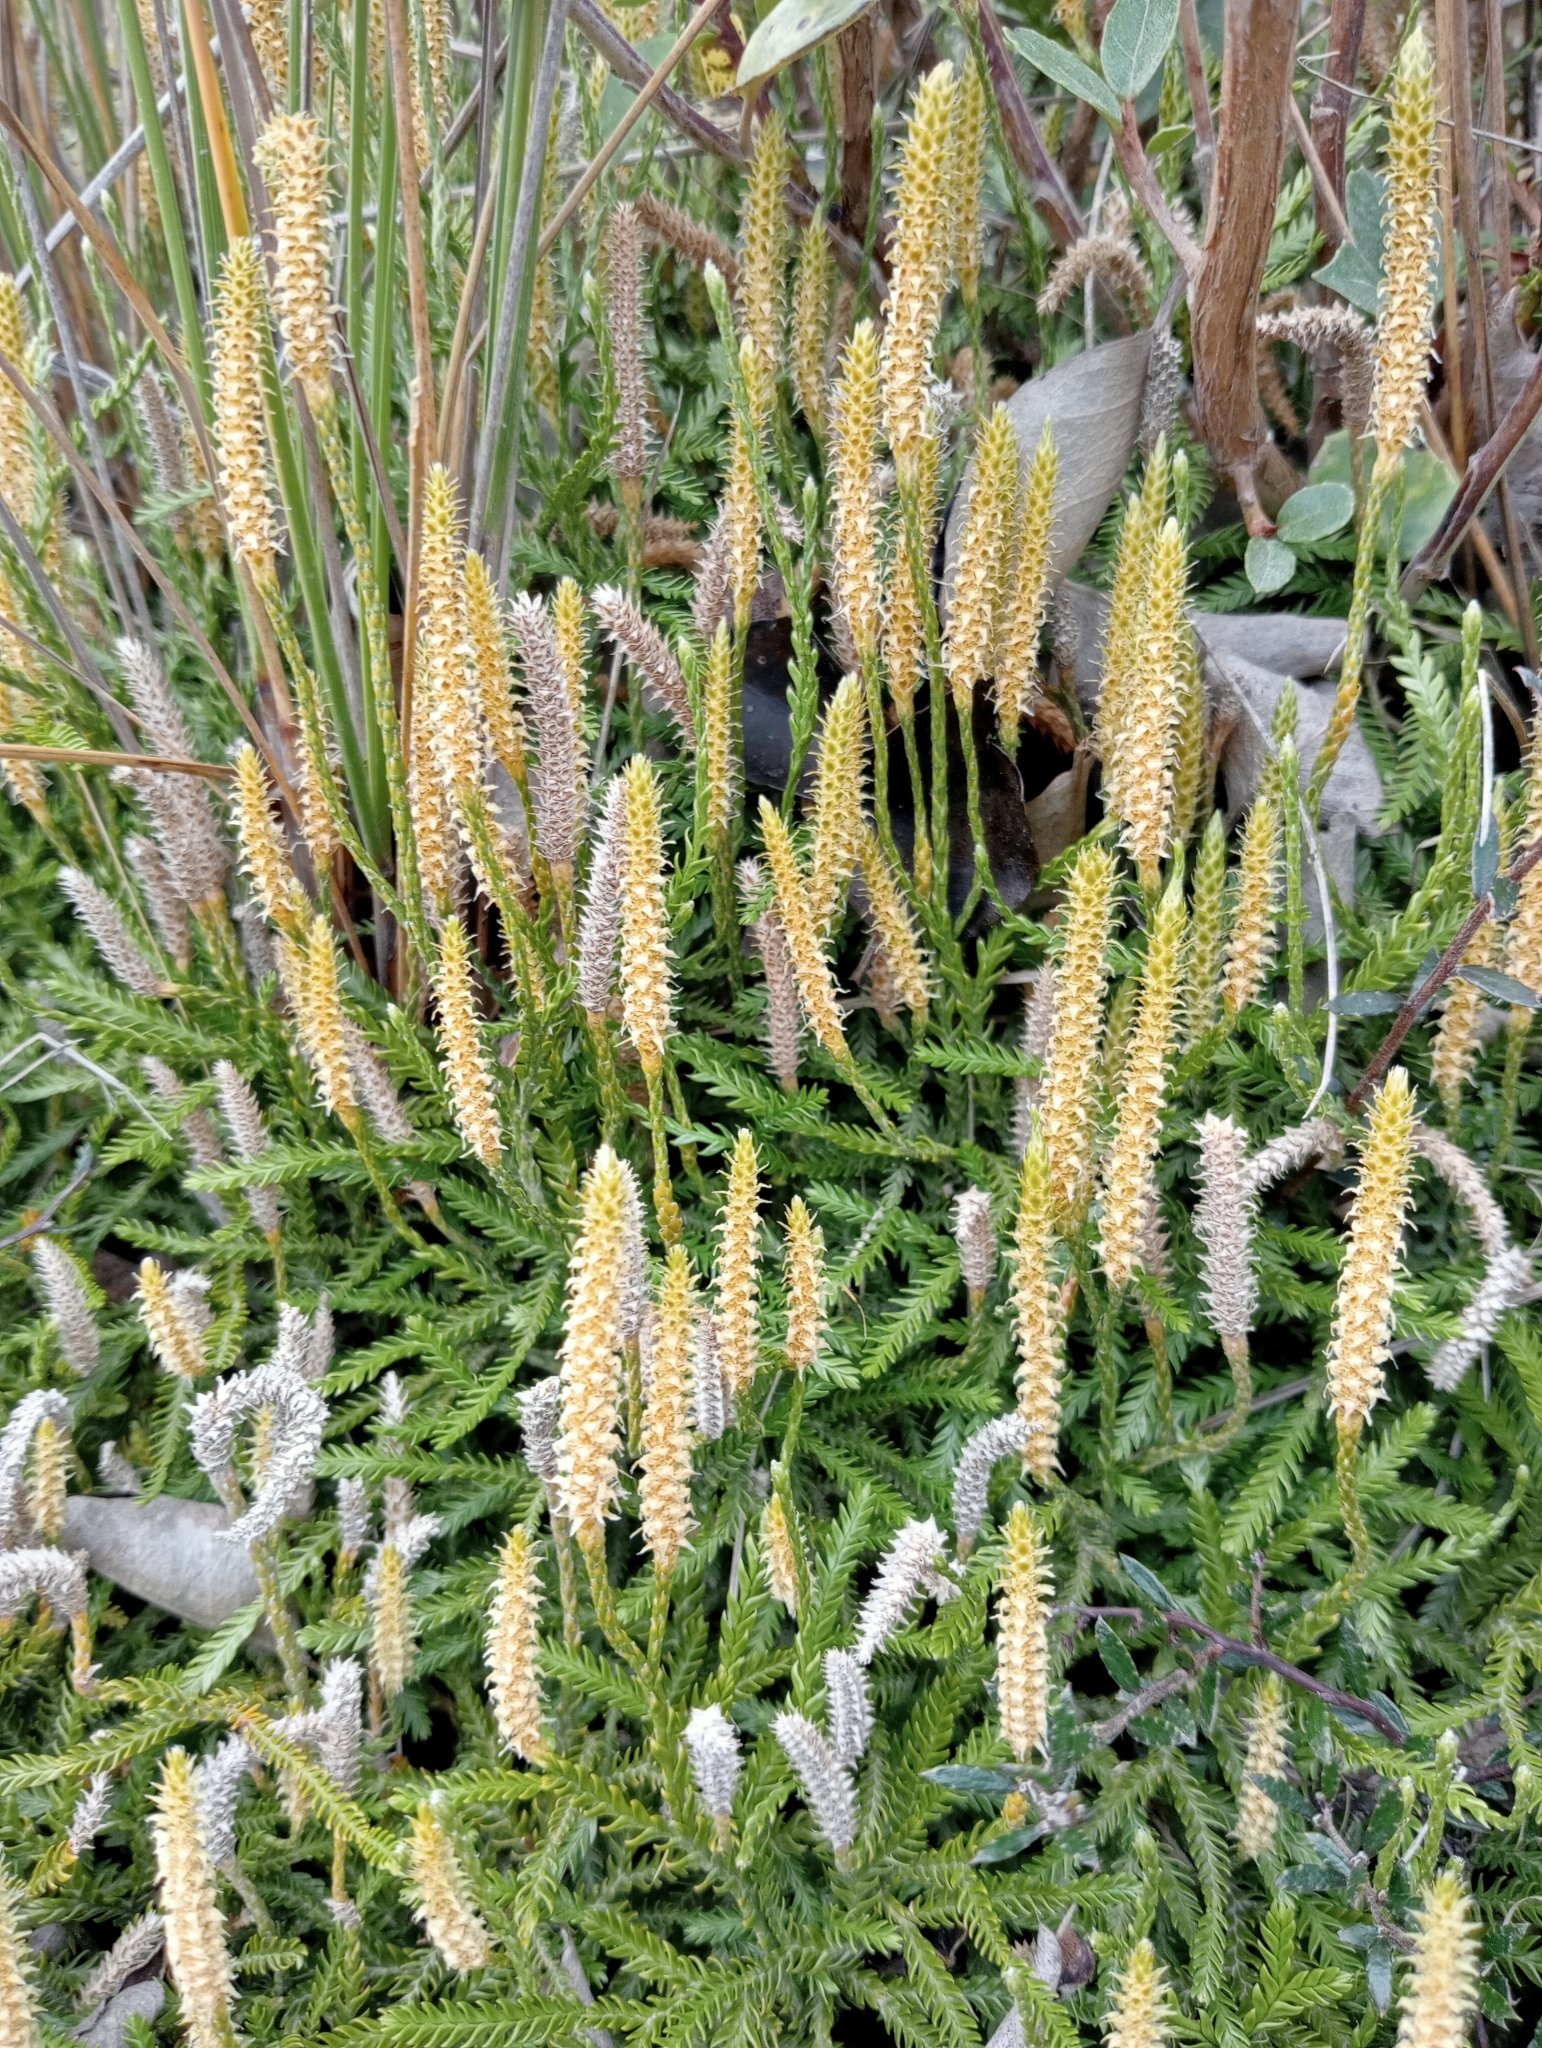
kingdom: Plantae
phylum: Tracheophyta
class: Lycopodiopsida
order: Lycopodiales
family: Lycopodiaceae
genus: Diphasium
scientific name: Diphasium scariosum
